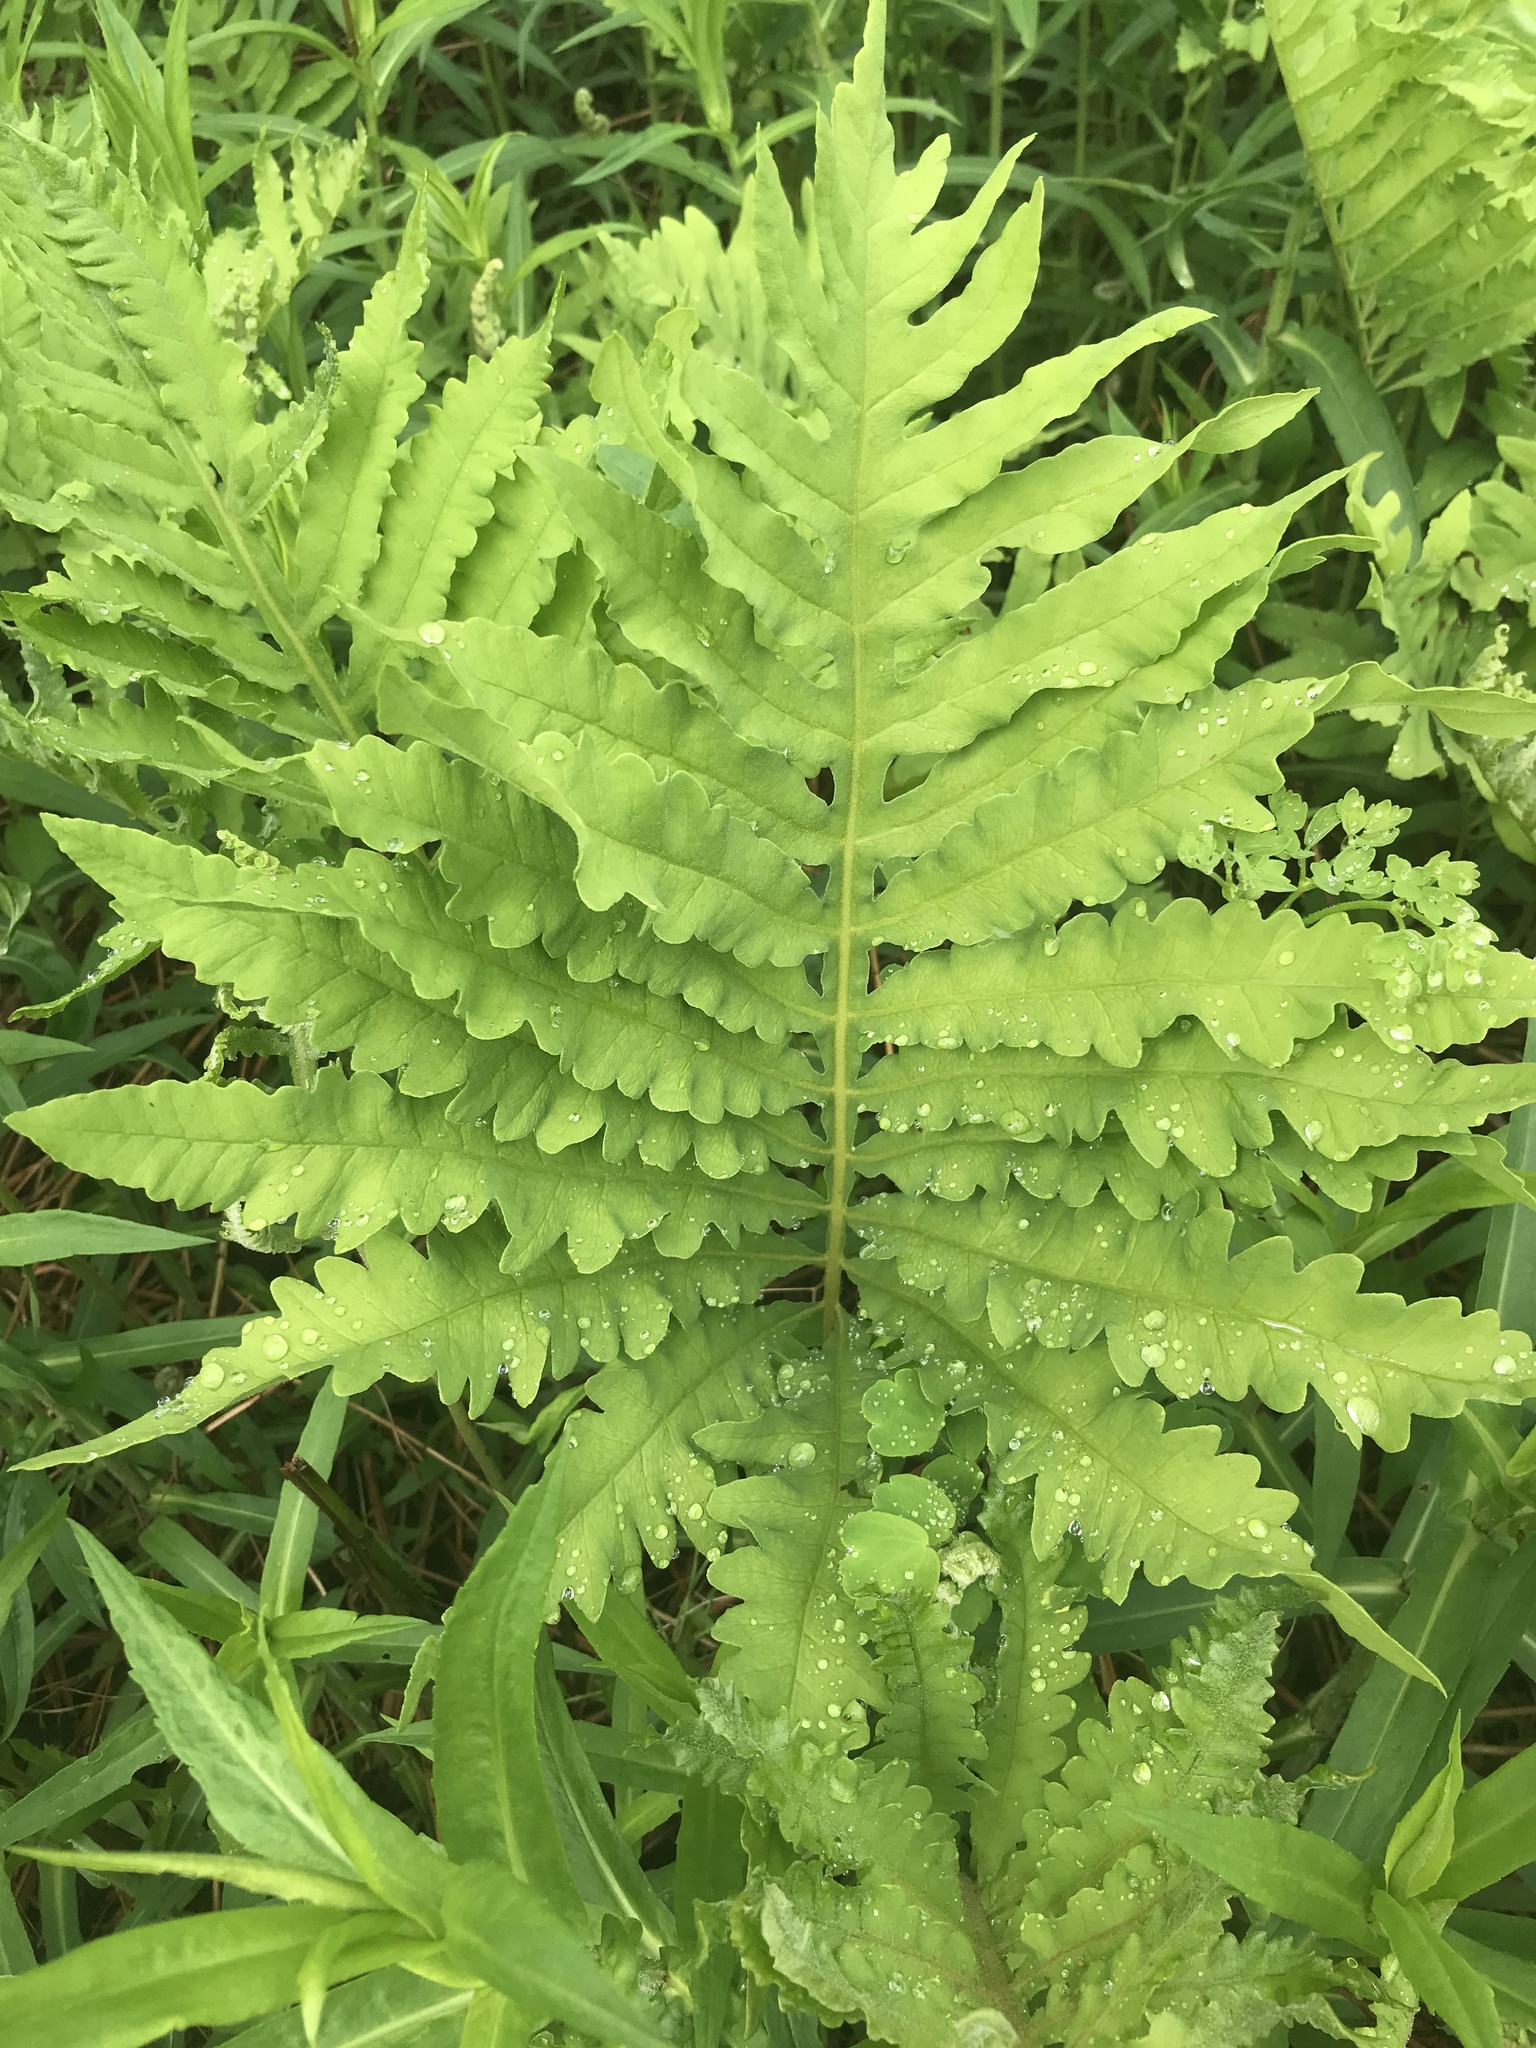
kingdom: Plantae
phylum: Tracheophyta
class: Polypodiopsida
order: Polypodiales
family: Onocleaceae
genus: Onoclea
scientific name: Onoclea sensibilis
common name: Sensitive fern
